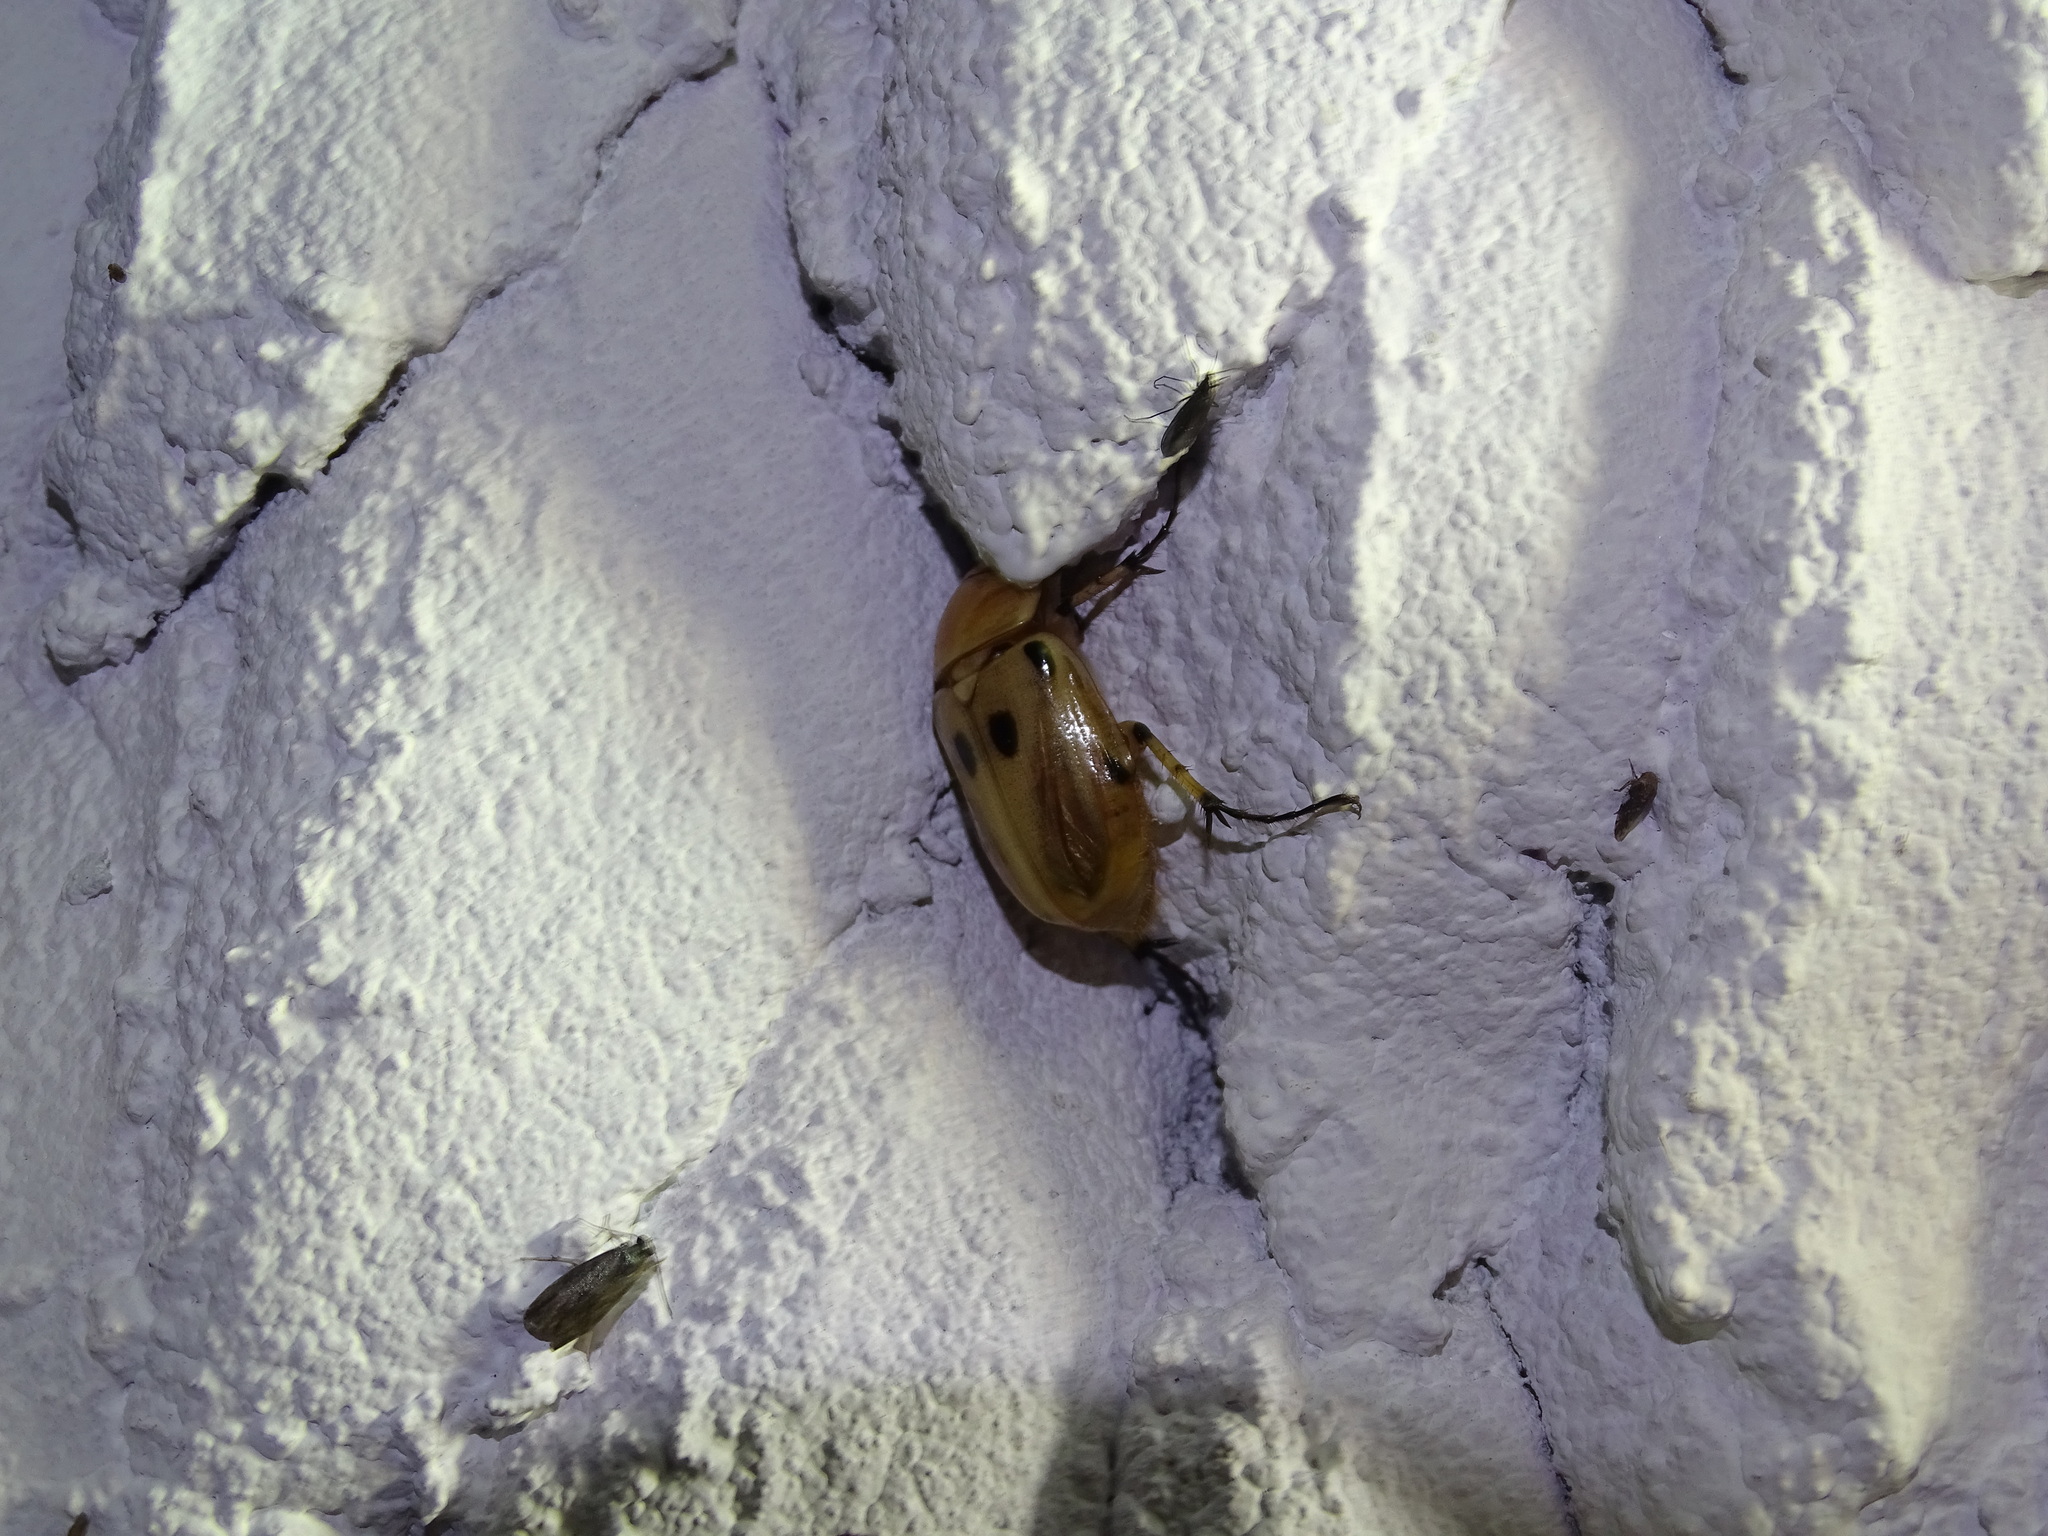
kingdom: Animalia
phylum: Arthropoda
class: Insecta
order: Coleoptera
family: Scarabaeidae
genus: Ancognatha
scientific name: Ancognatha vulgaris
